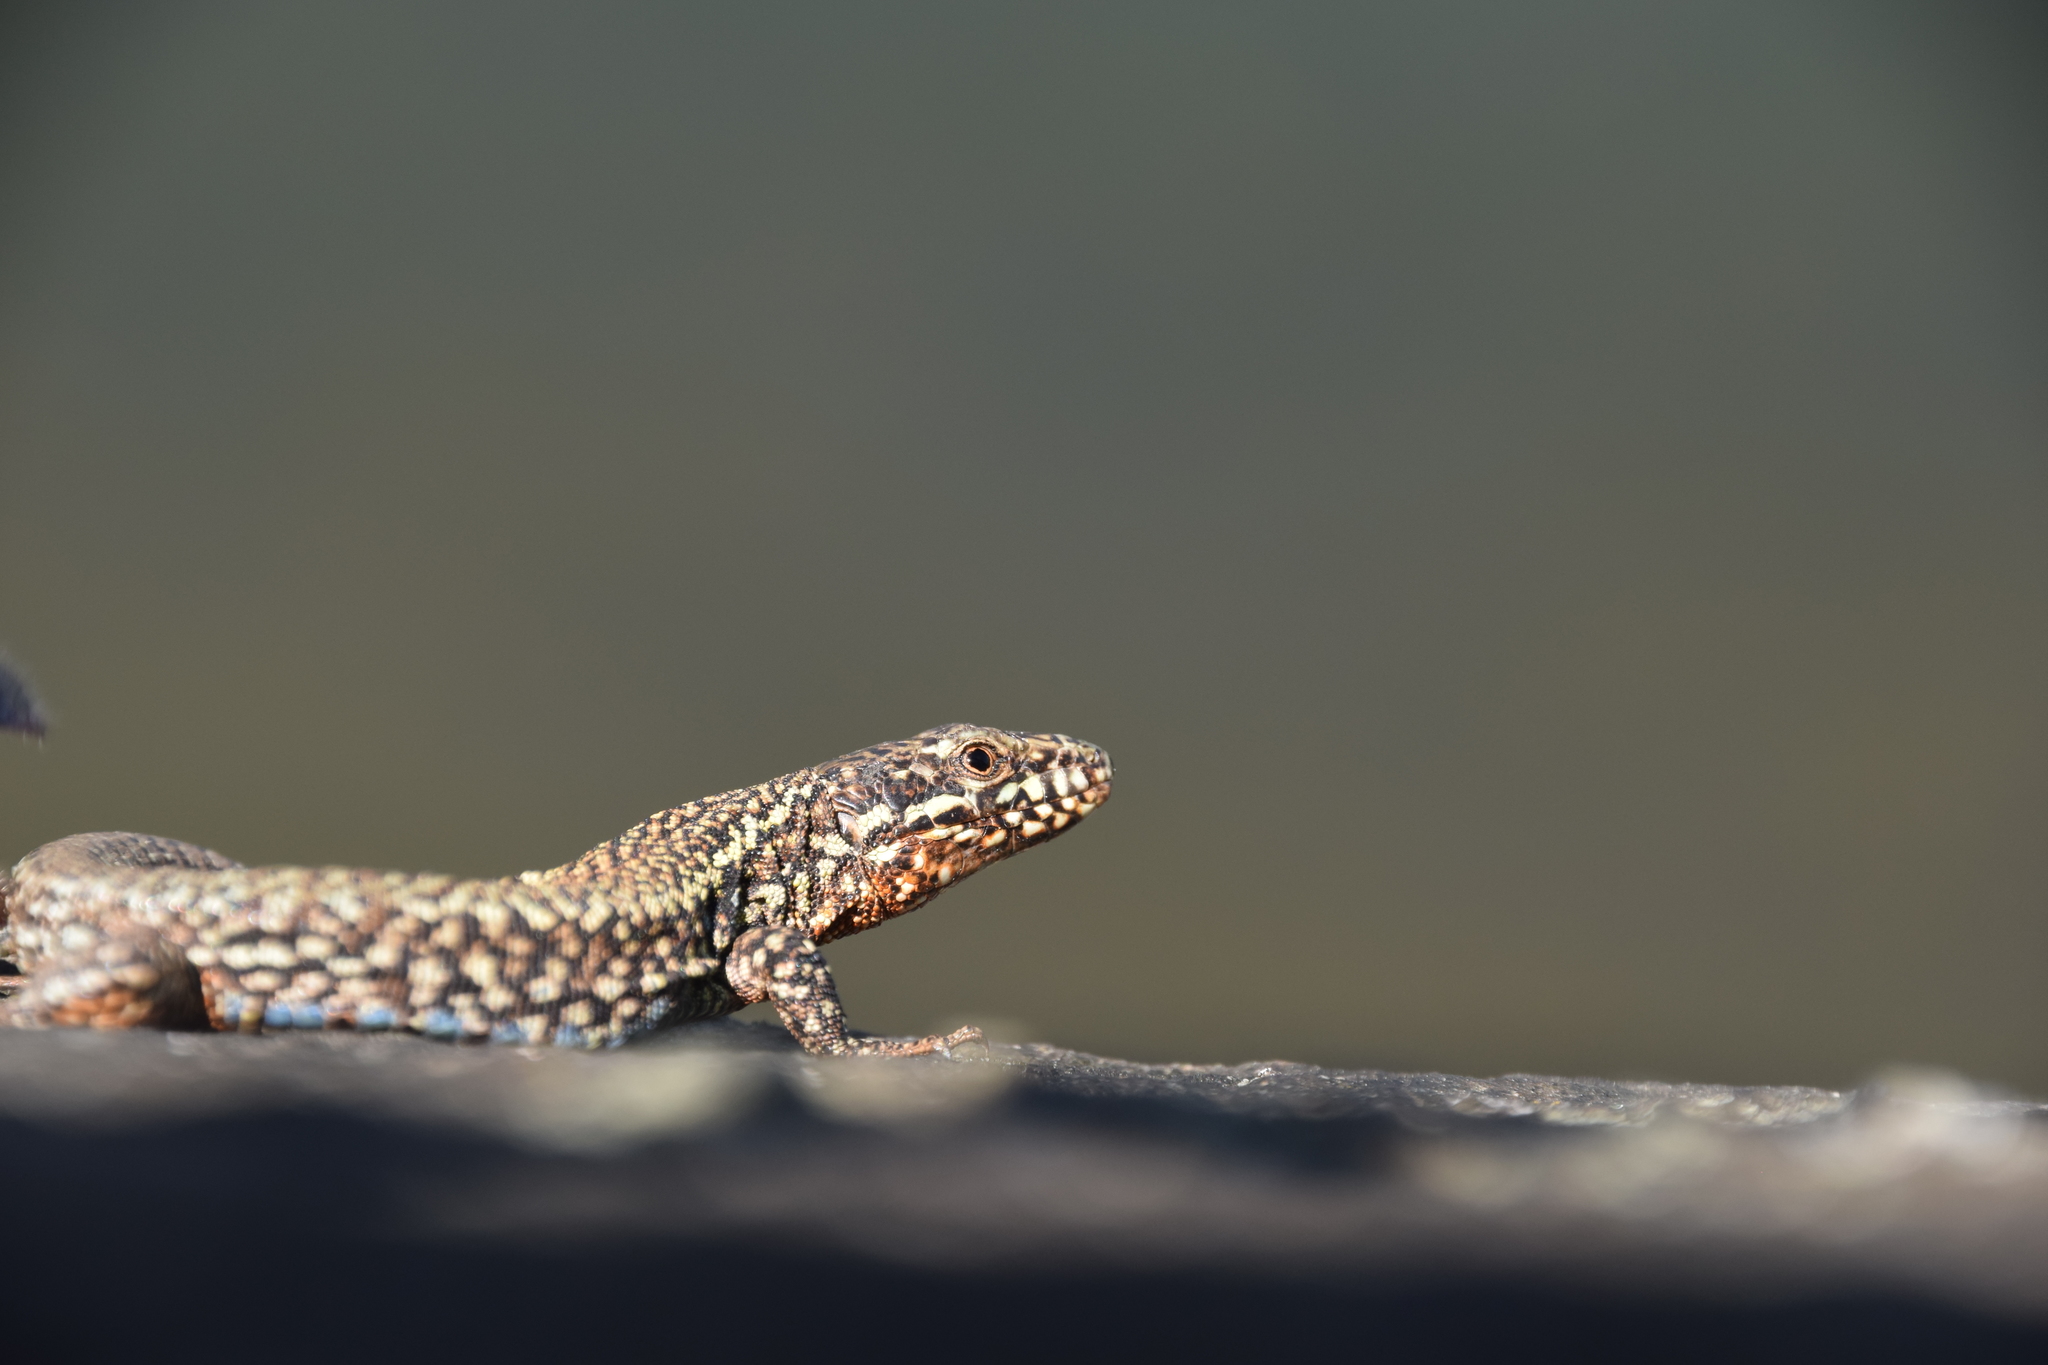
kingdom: Animalia
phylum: Chordata
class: Squamata
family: Lacertidae
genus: Podarcis
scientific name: Podarcis muralis
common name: Common wall lizard
